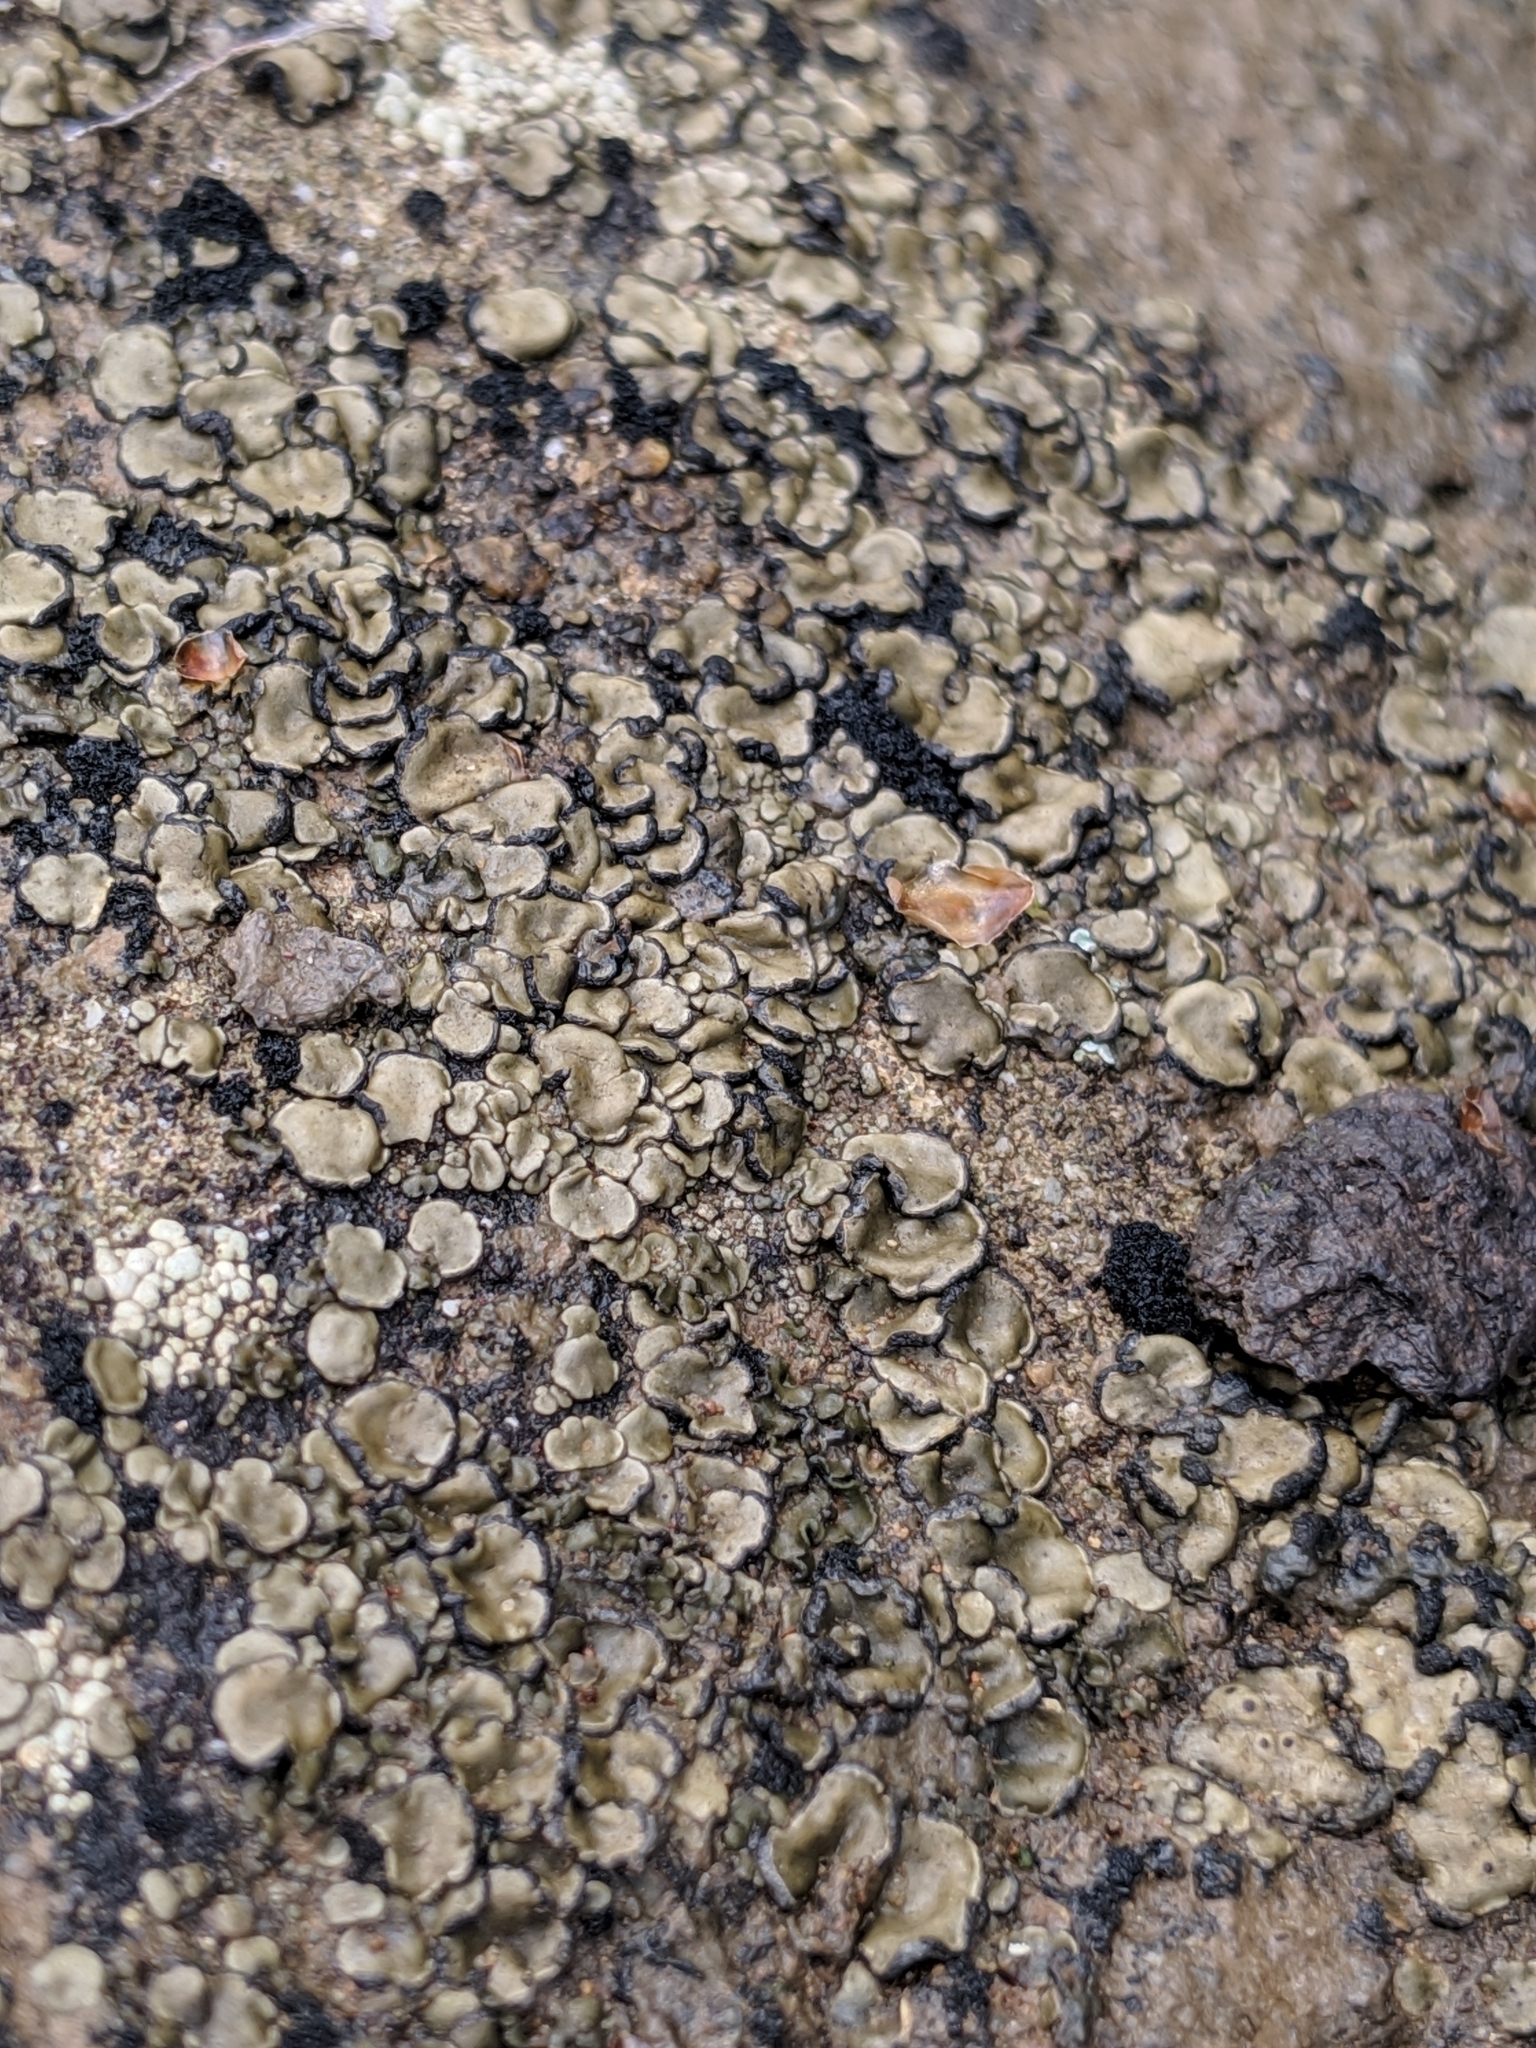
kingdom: Fungi
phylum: Ascomycota
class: Lichinomycetes
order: Lichinales
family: Peltulaceae
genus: Peltula
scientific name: Peltula euploca
